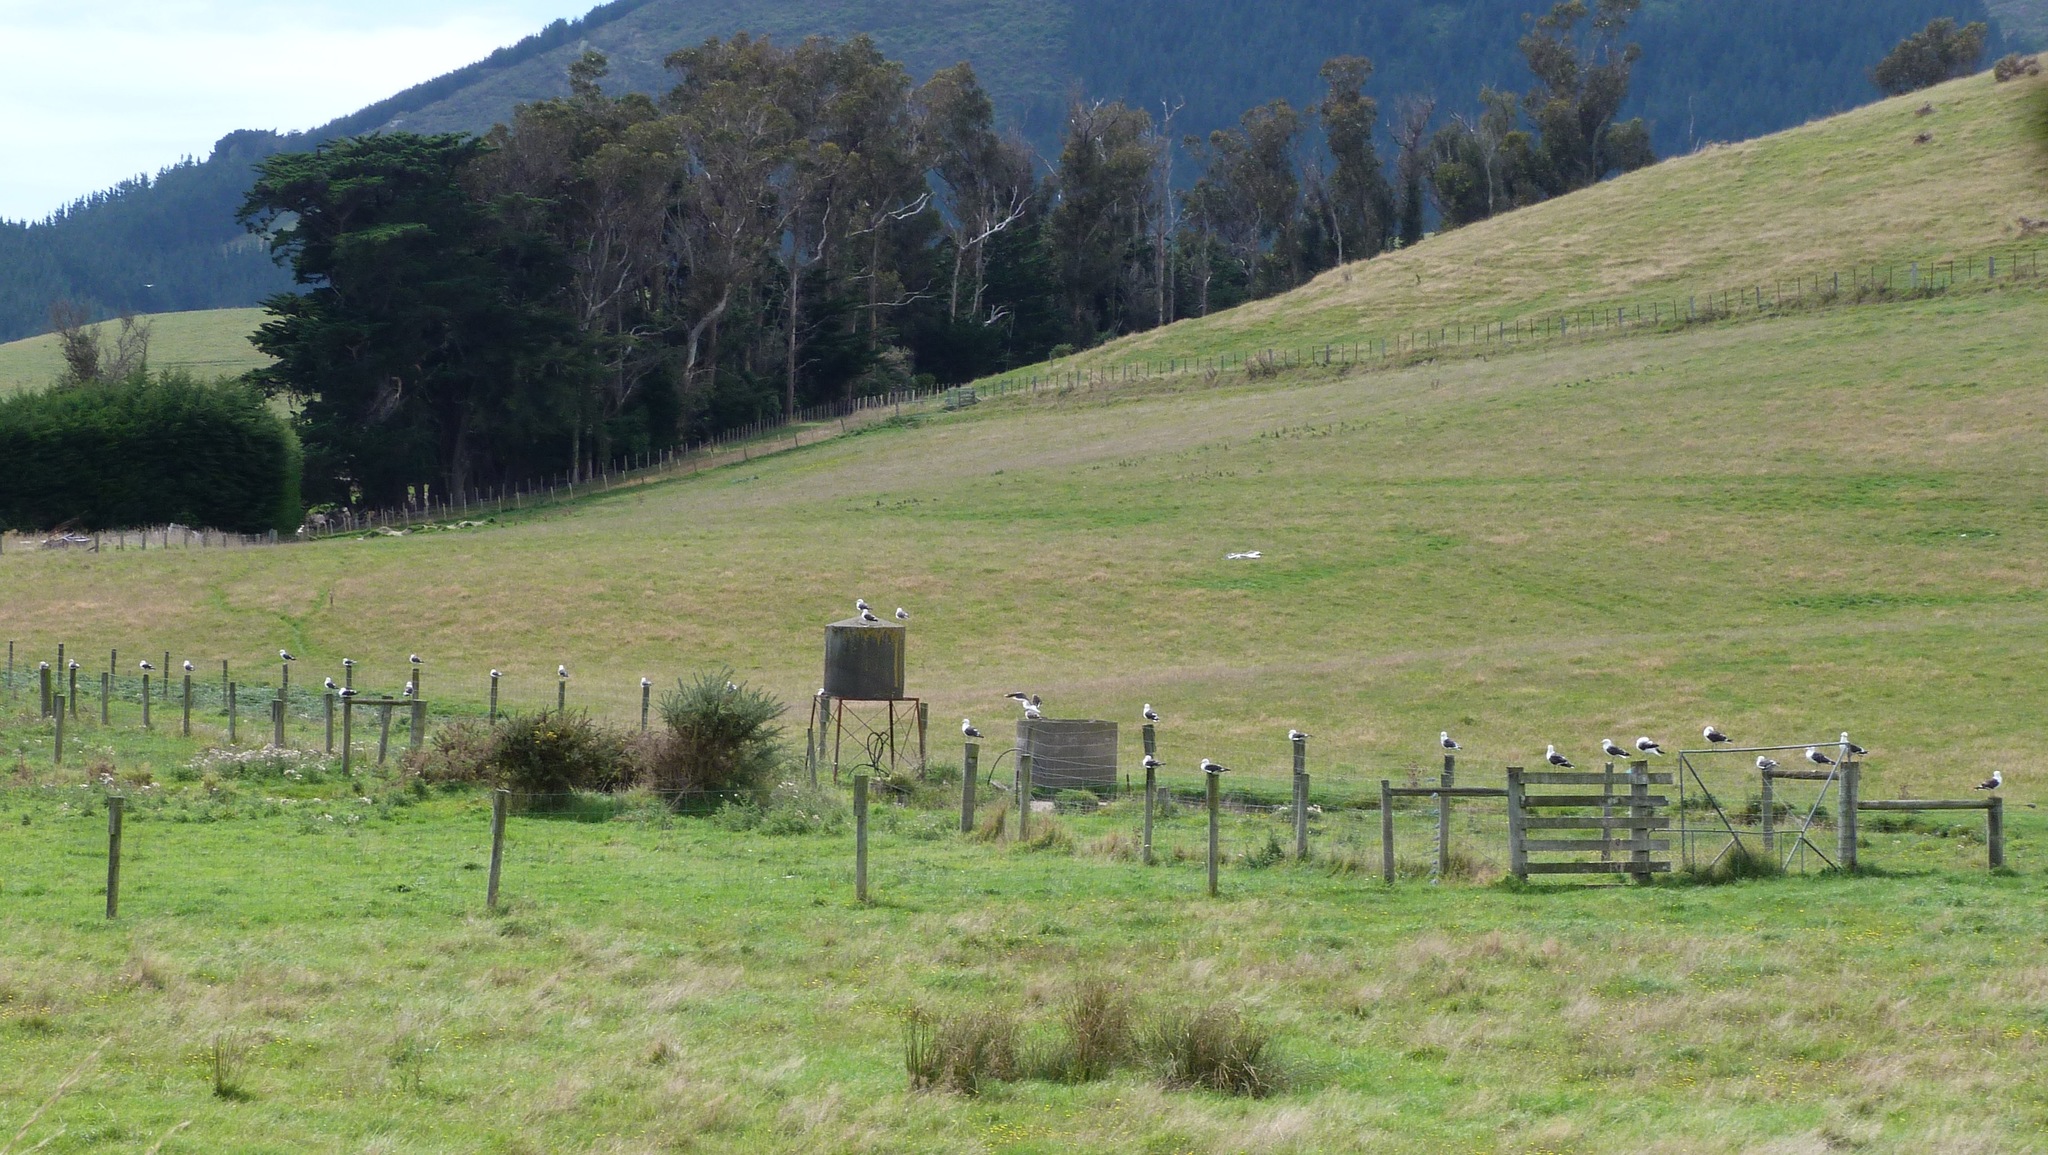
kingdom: Animalia
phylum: Chordata
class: Aves
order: Charadriiformes
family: Laridae
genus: Larus
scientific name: Larus dominicanus
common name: Kelp gull
